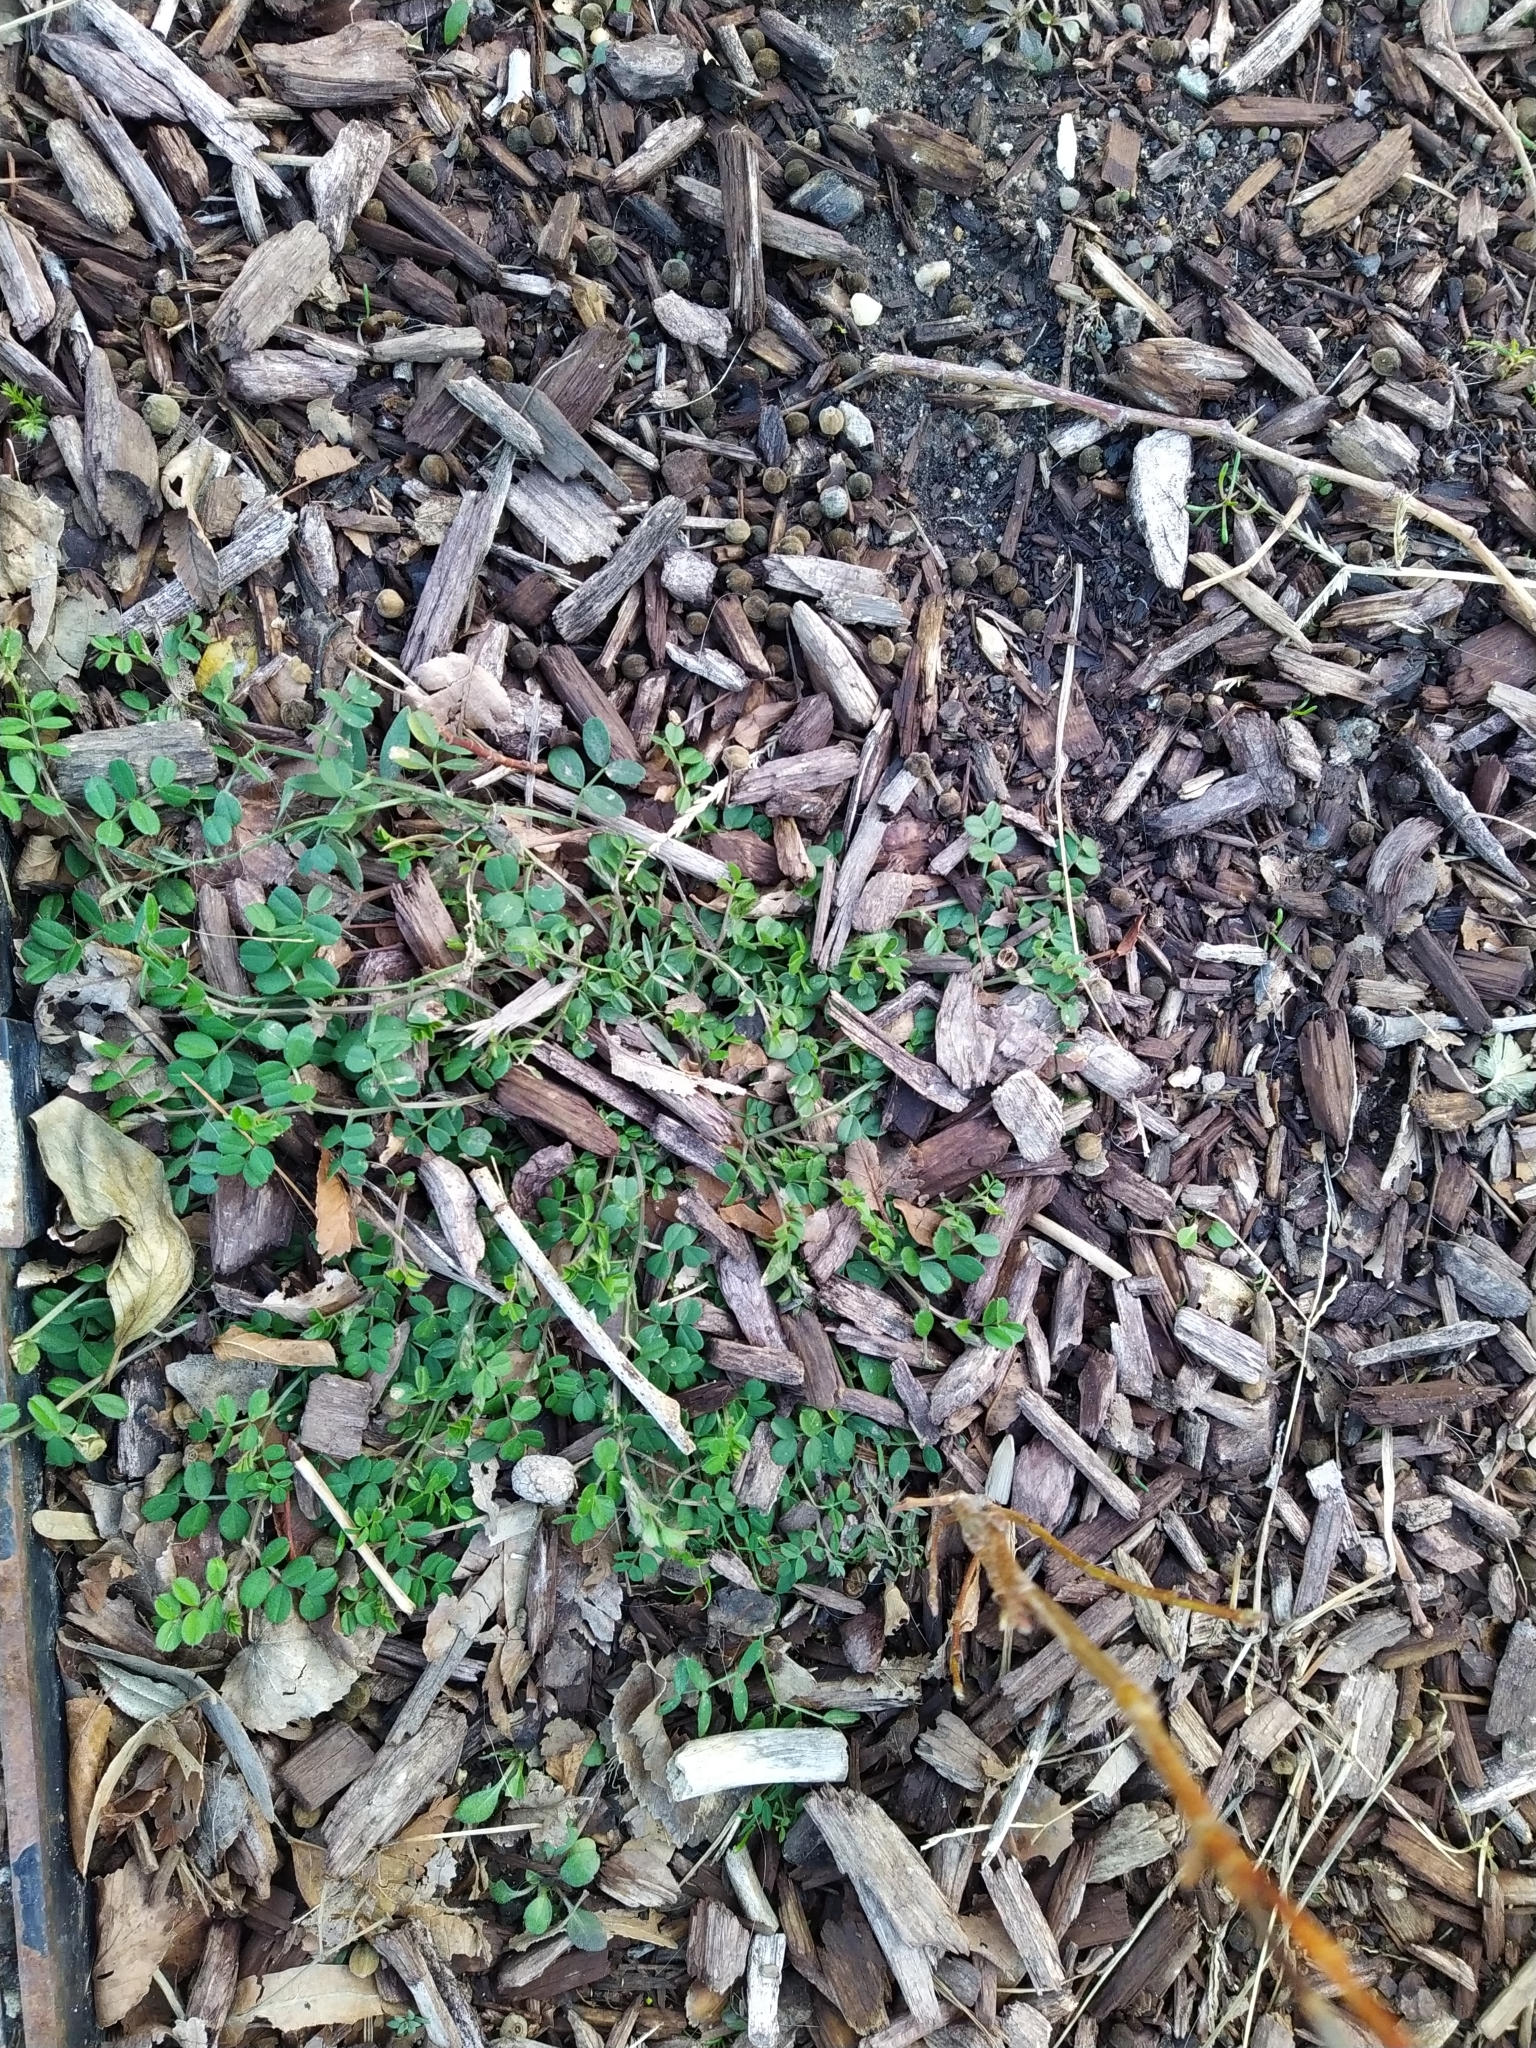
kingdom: Plantae
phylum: Tracheophyta
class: Magnoliopsida
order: Fabales
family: Fabaceae
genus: Coronilla
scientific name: Coronilla varia
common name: Crownvetch
